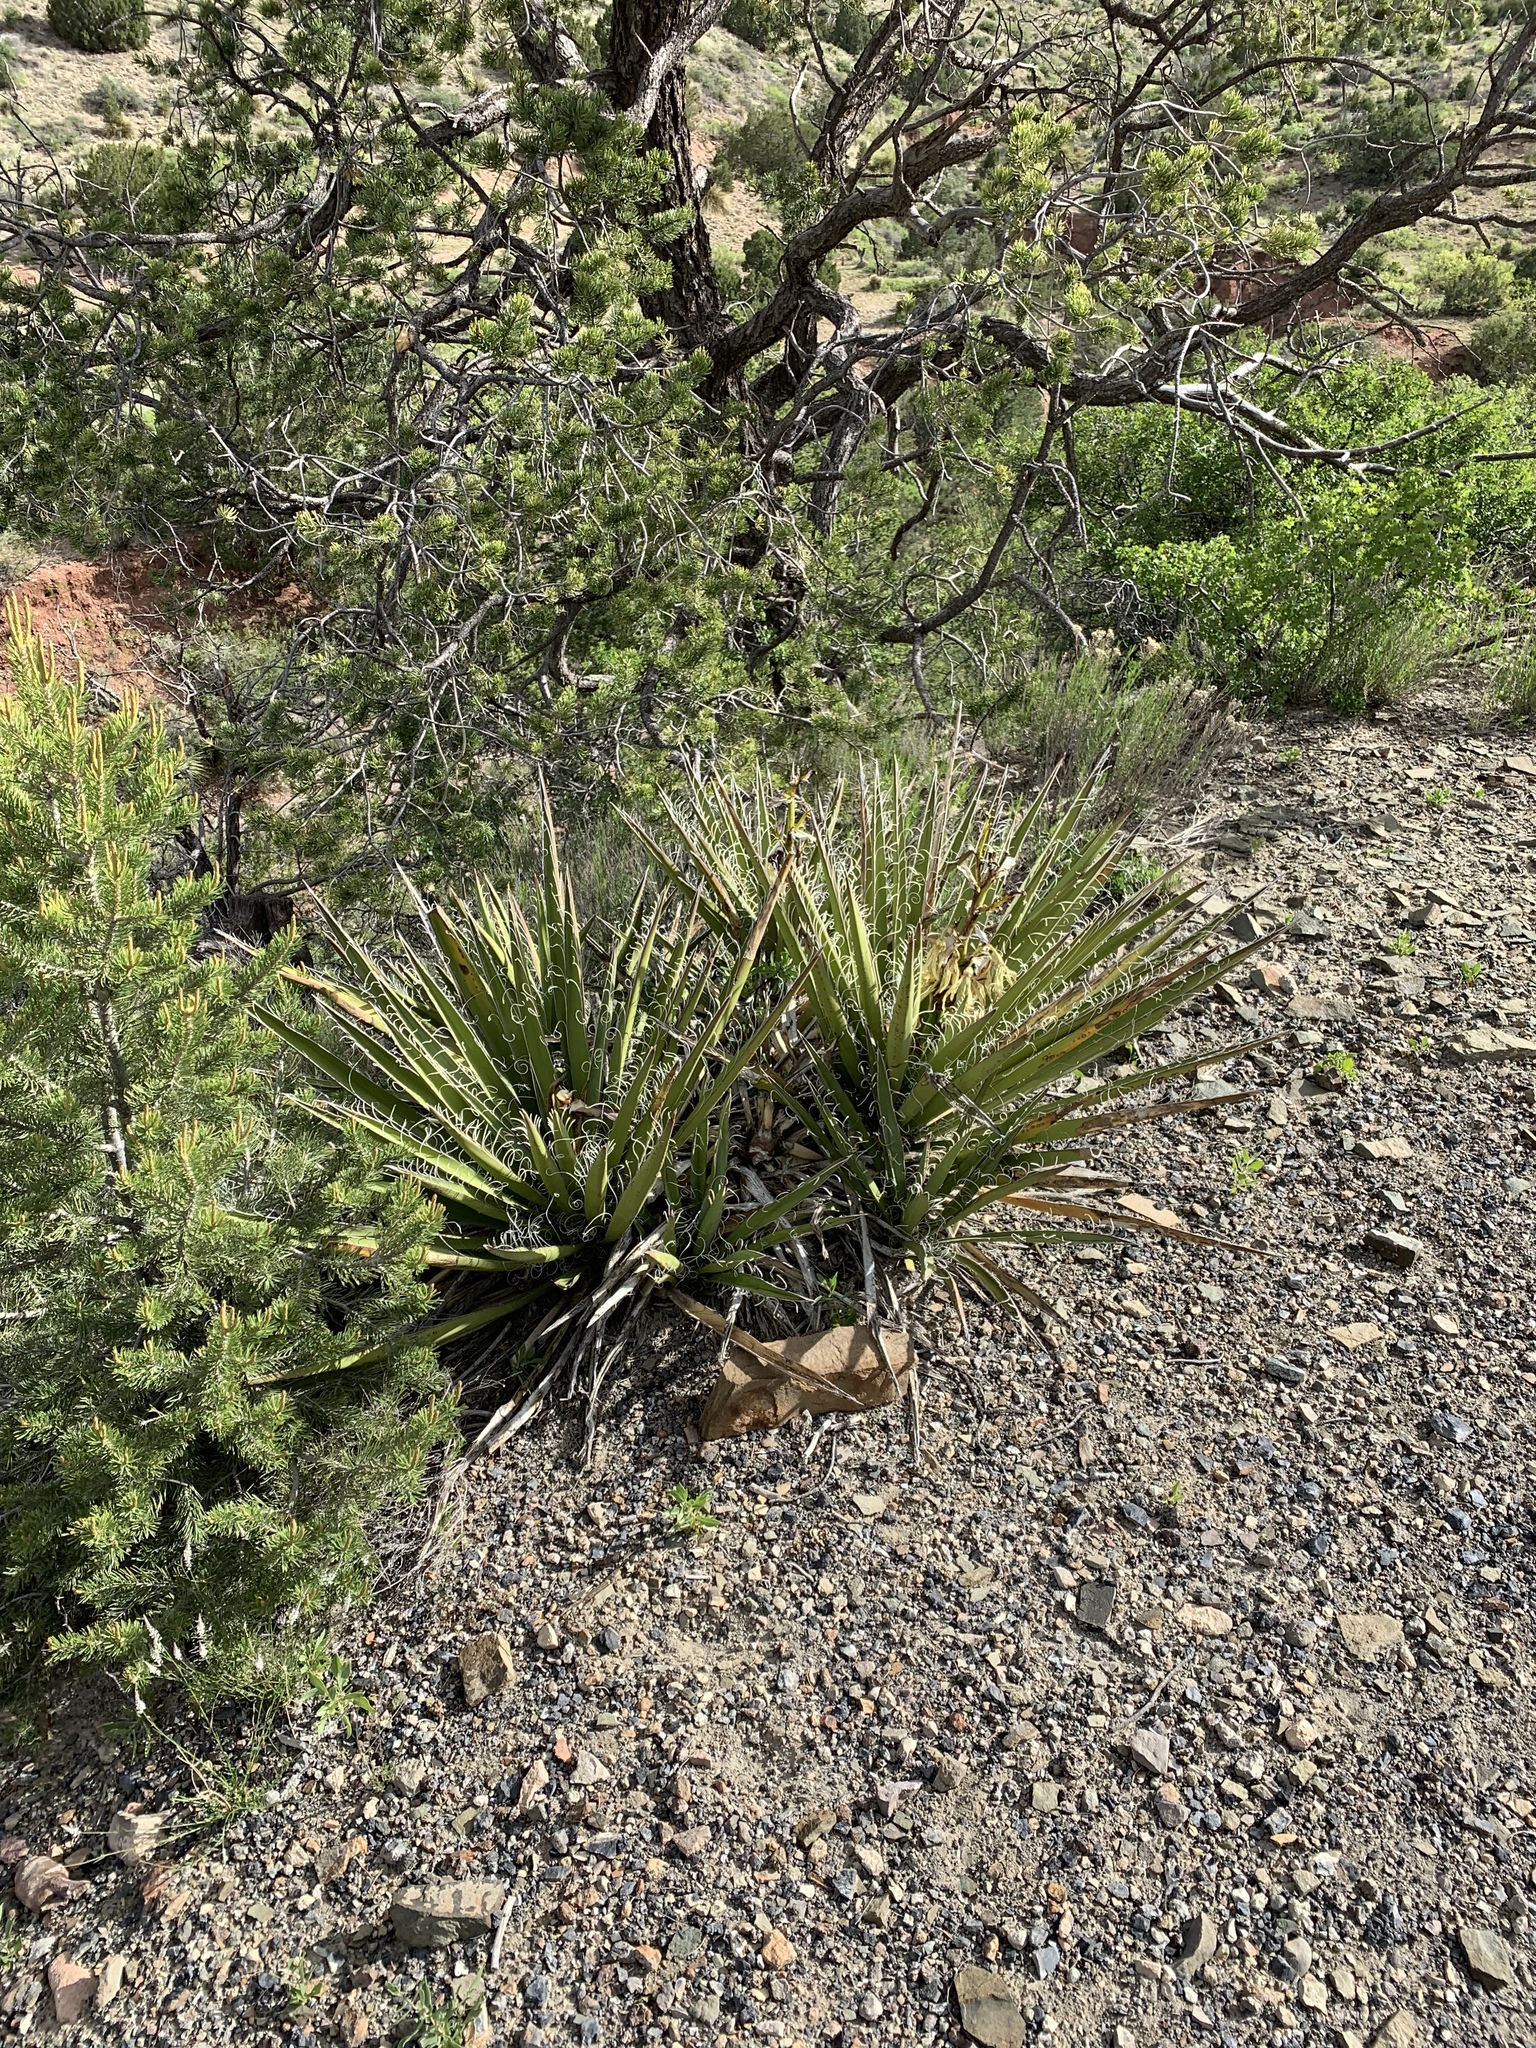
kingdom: Plantae
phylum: Tracheophyta
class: Liliopsida
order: Asparagales
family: Asparagaceae
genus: Yucca
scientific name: Yucca baccata
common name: Banana yucca
